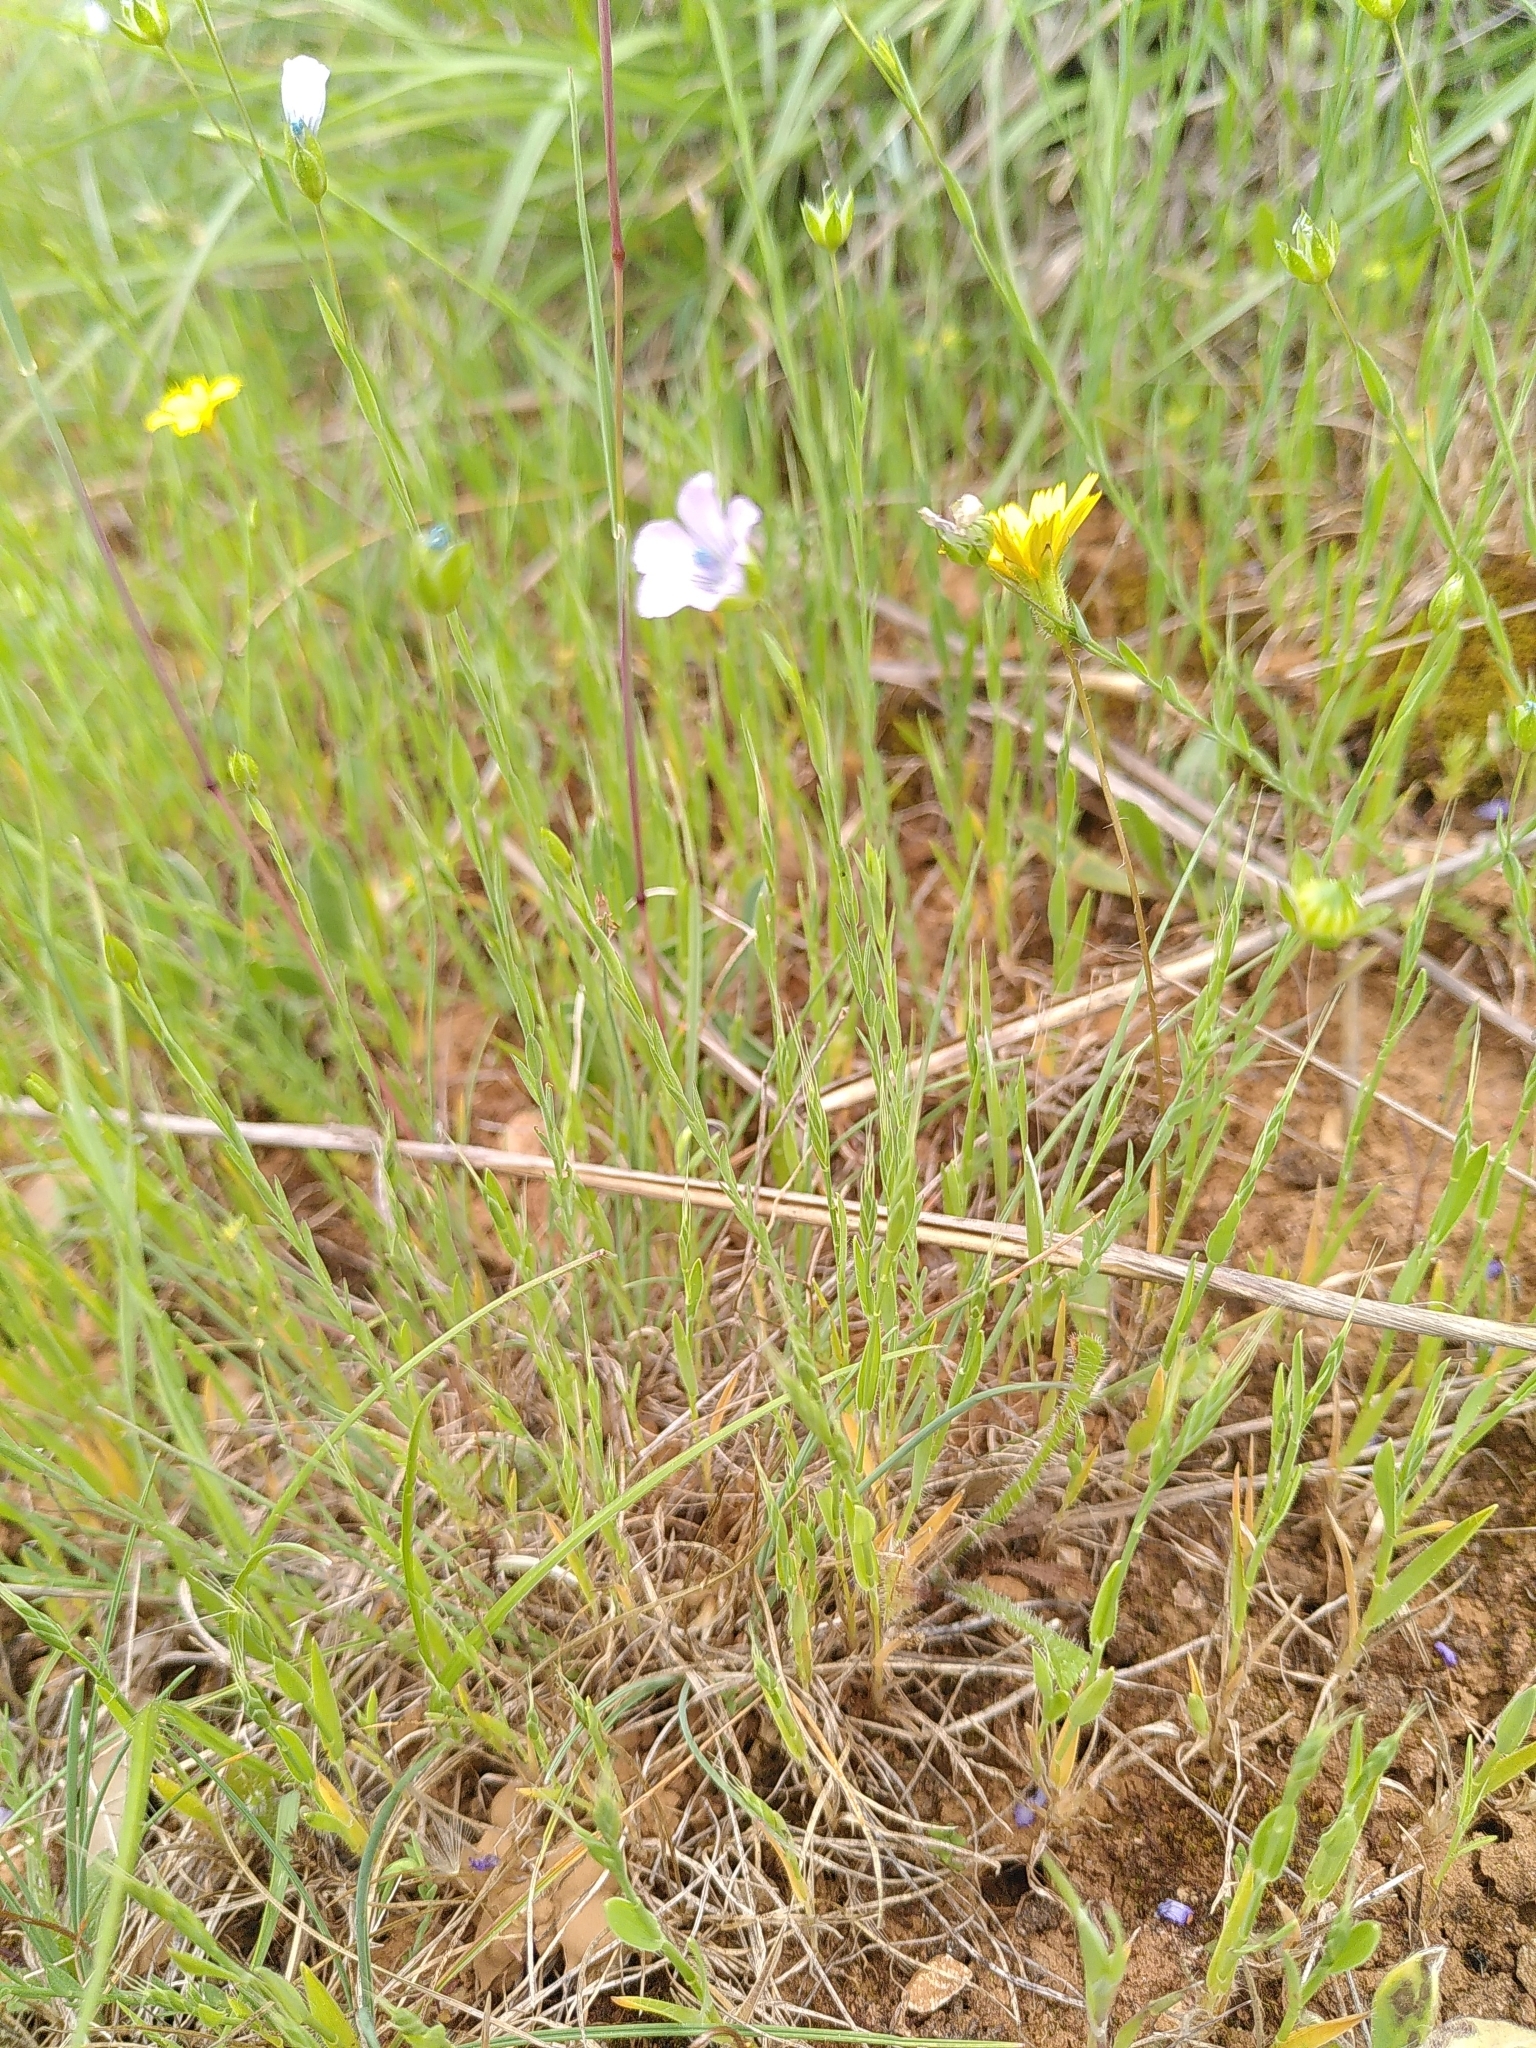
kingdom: Plantae
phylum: Tracheophyta
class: Magnoliopsida
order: Malpighiales
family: Linaceae
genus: Linum
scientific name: Linum bienne
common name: Pale flax
